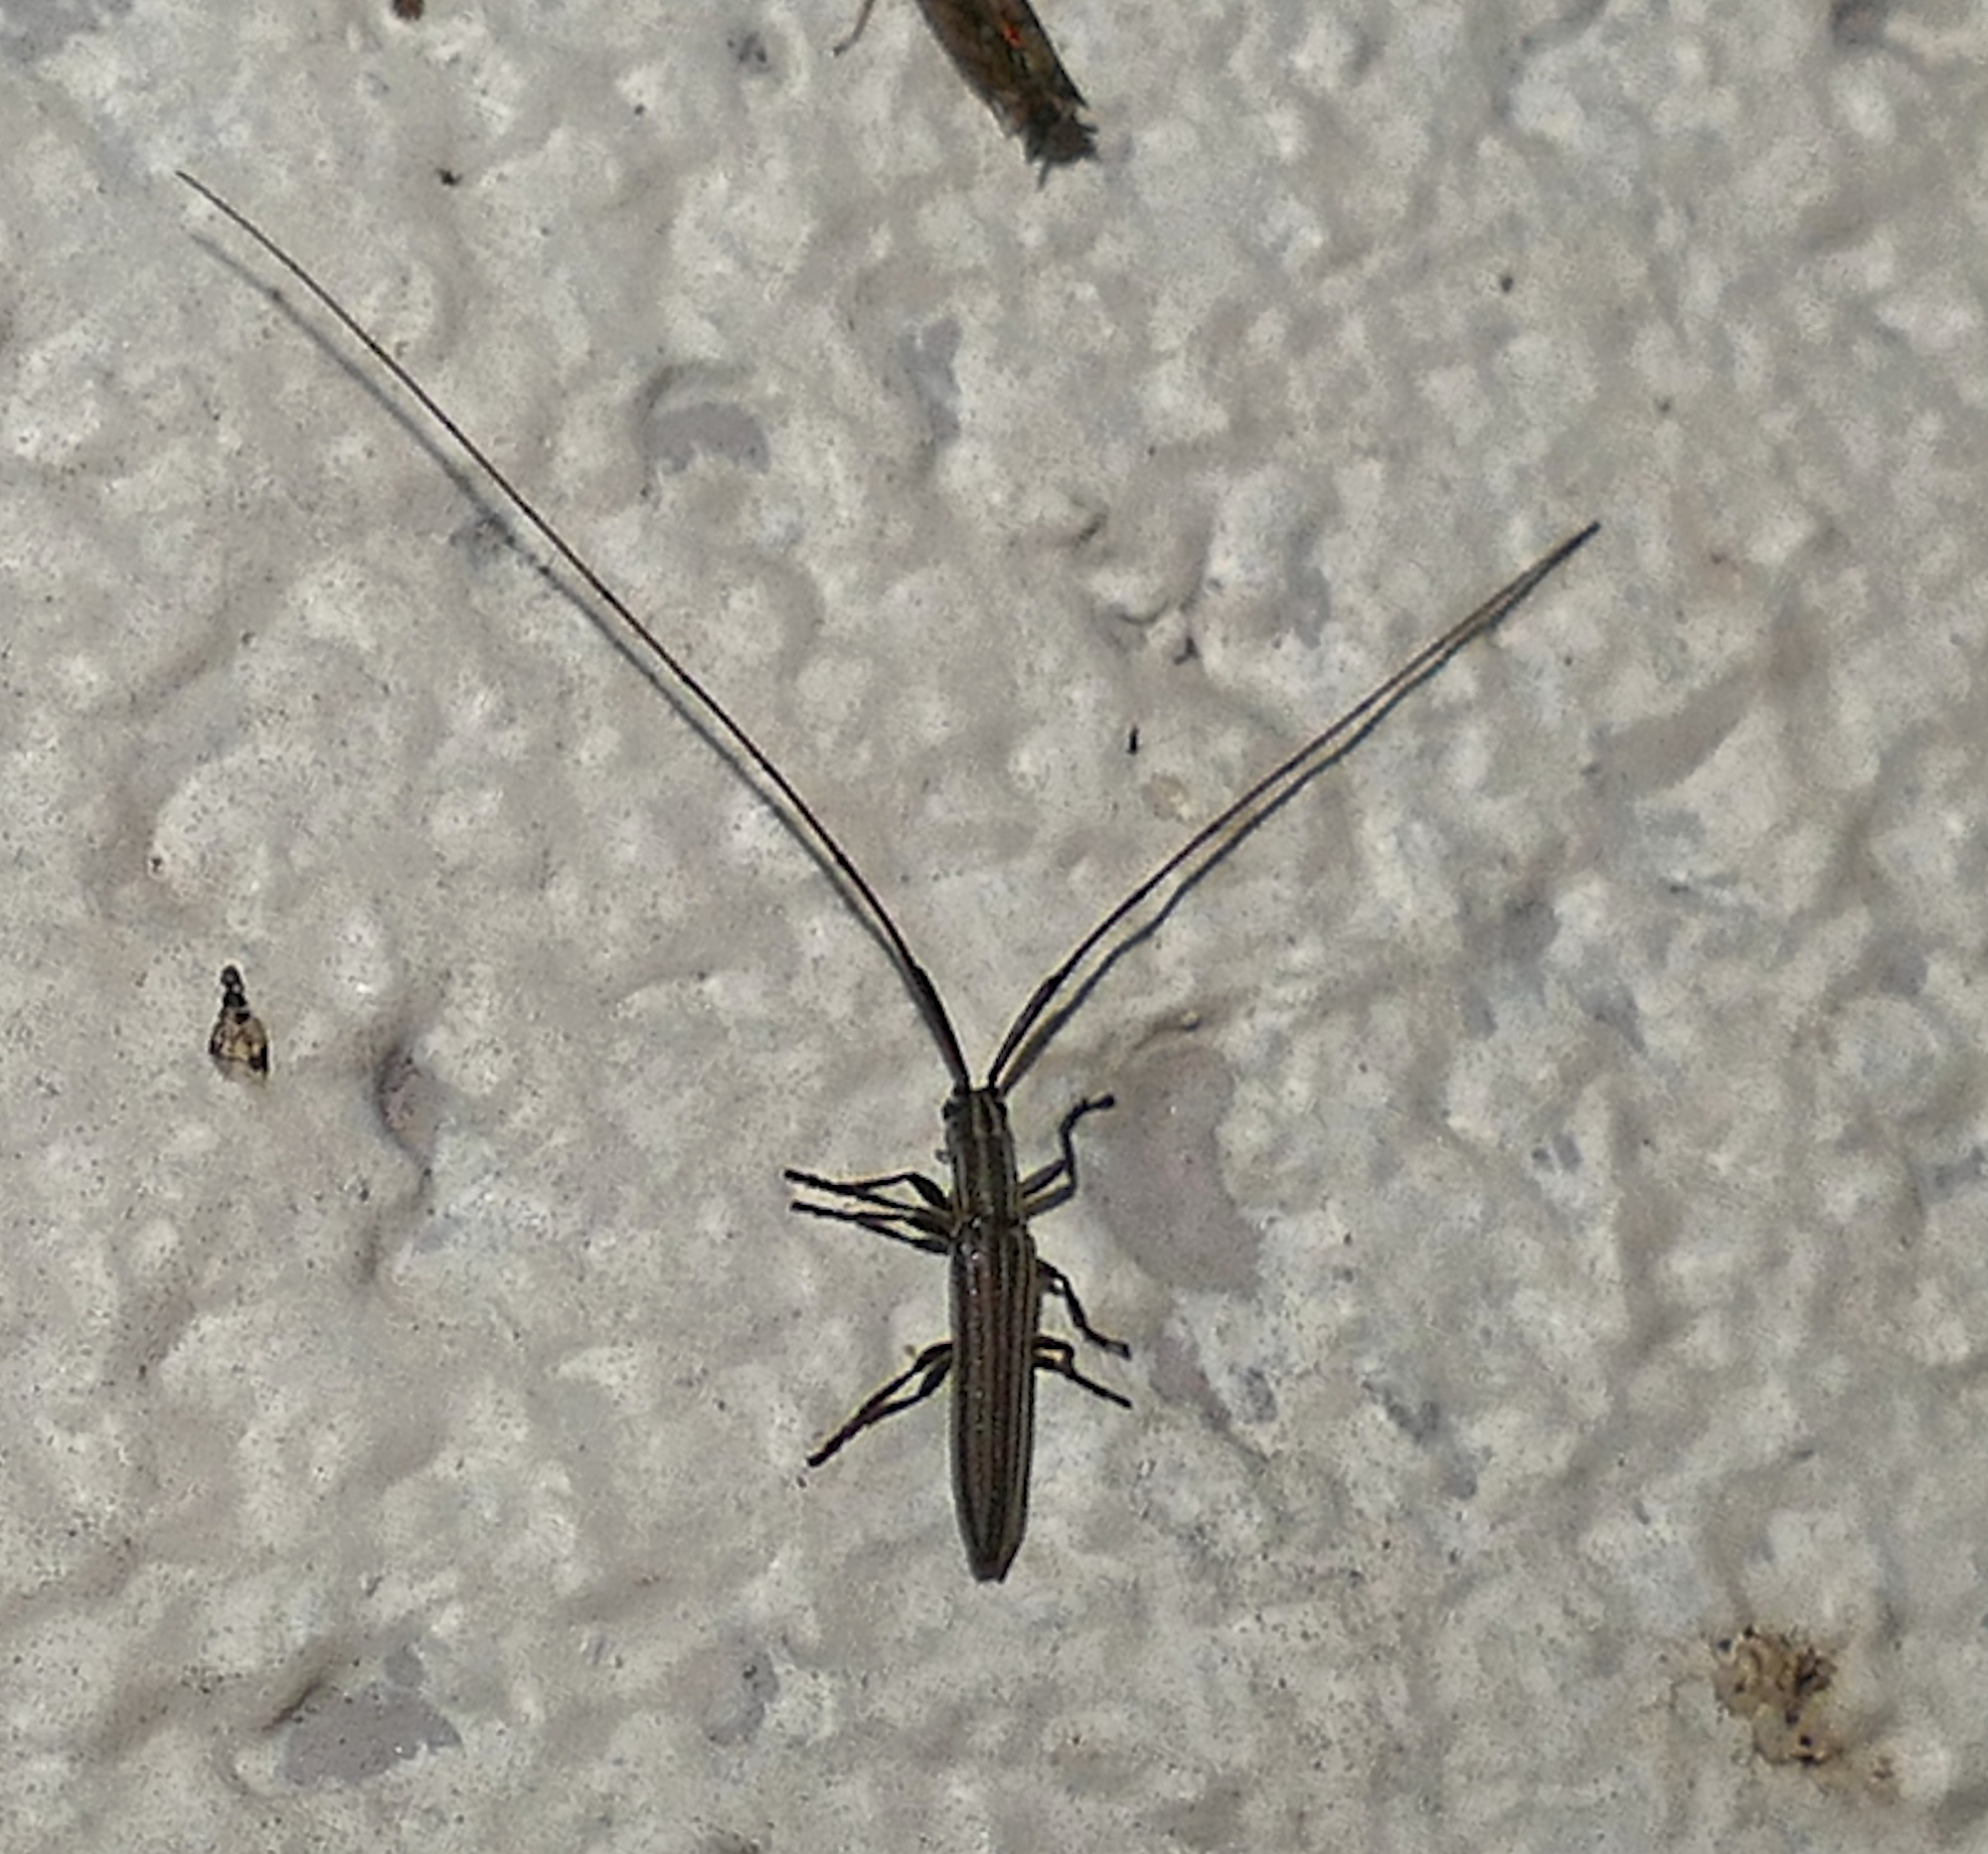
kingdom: Animalia
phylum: Arthropoda
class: Insecta
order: Coleoptera
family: Cerambycidae
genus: Hippopsis
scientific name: Hippopsis
